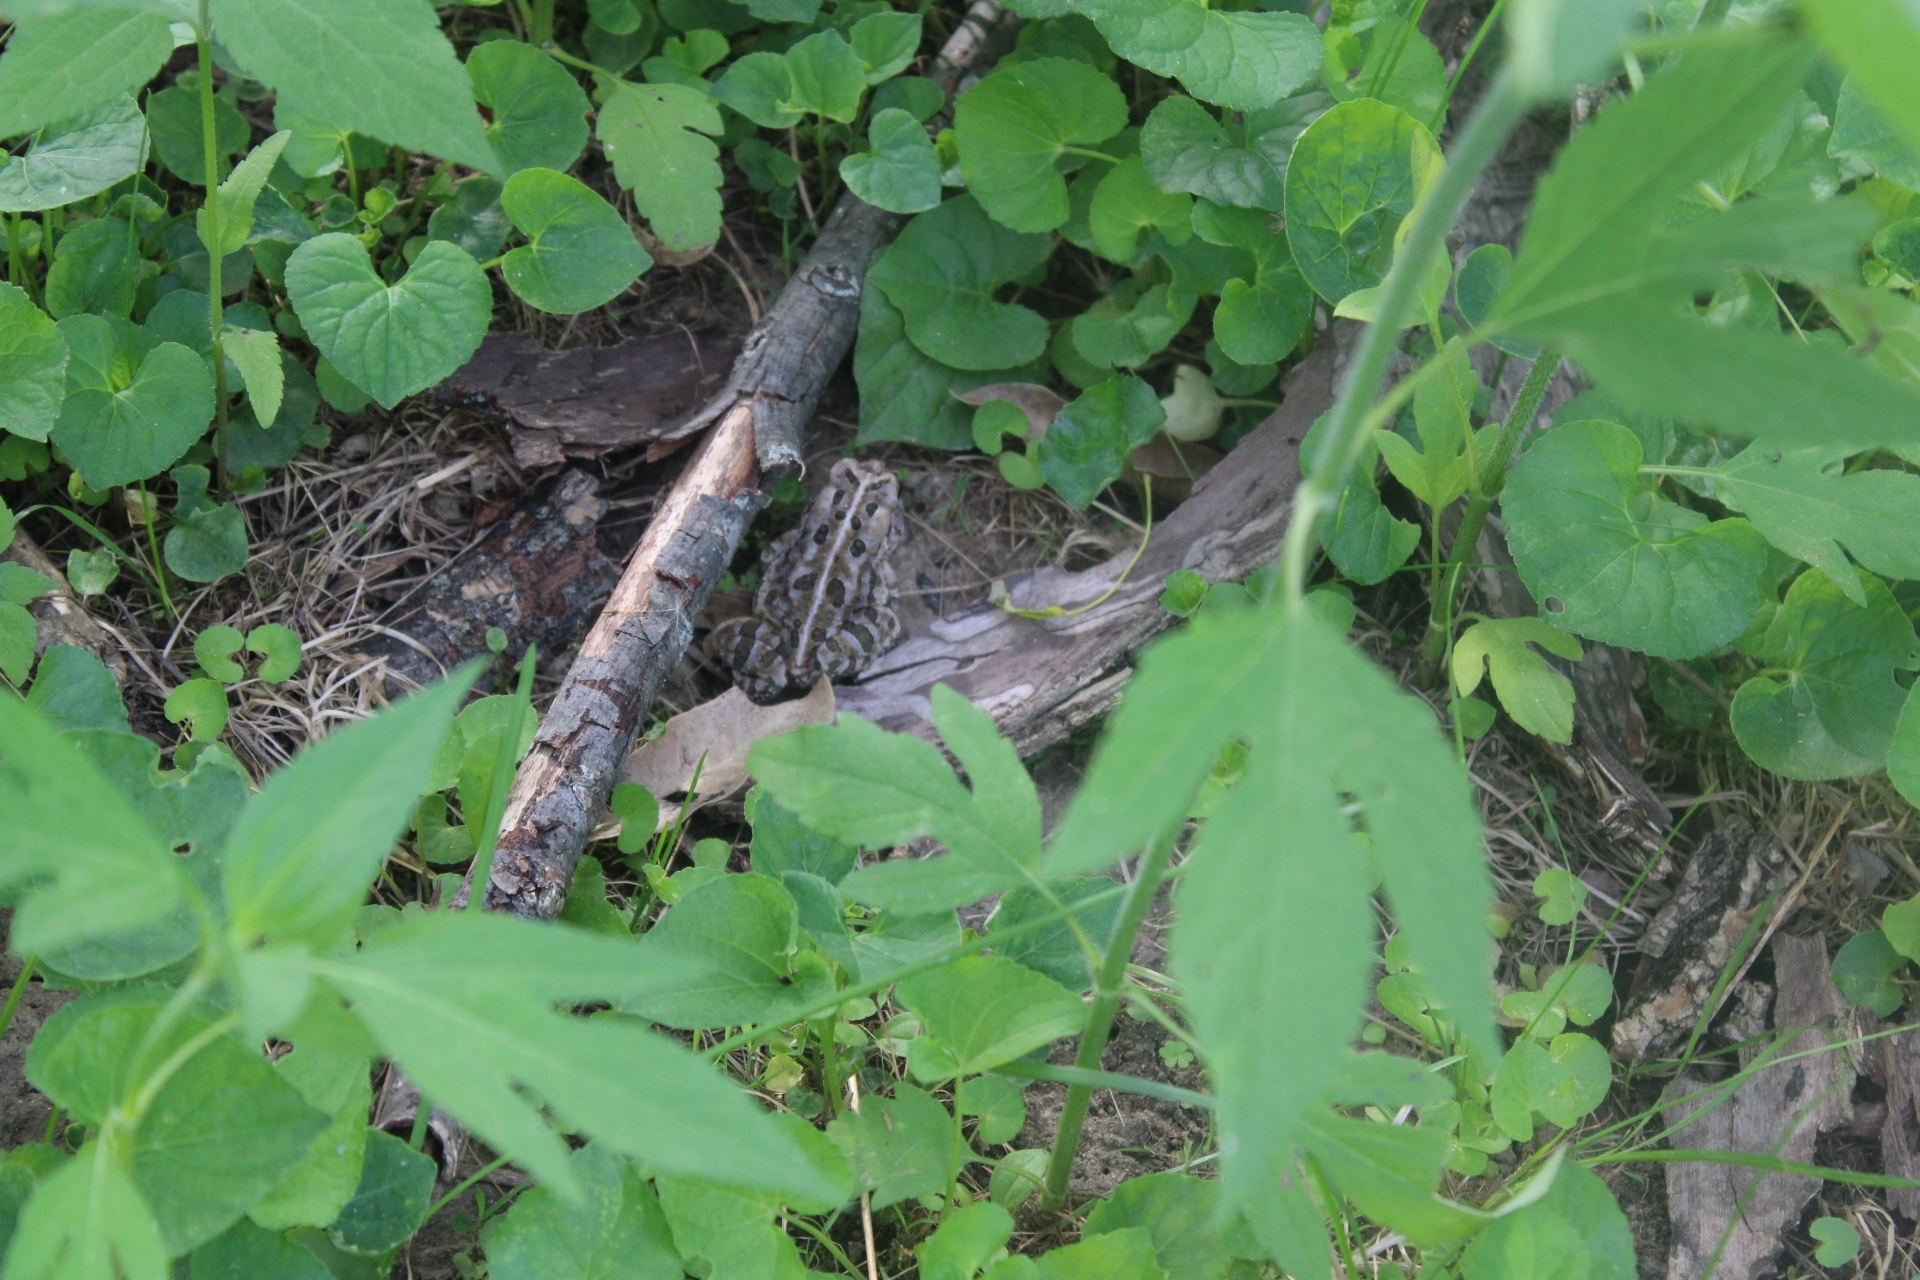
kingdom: Animalia
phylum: Chordata
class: Amphibia
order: Anura
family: Bufonidae
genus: Anaxyrus
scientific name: Anaxyrus fowleri
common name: Fowler's toad
